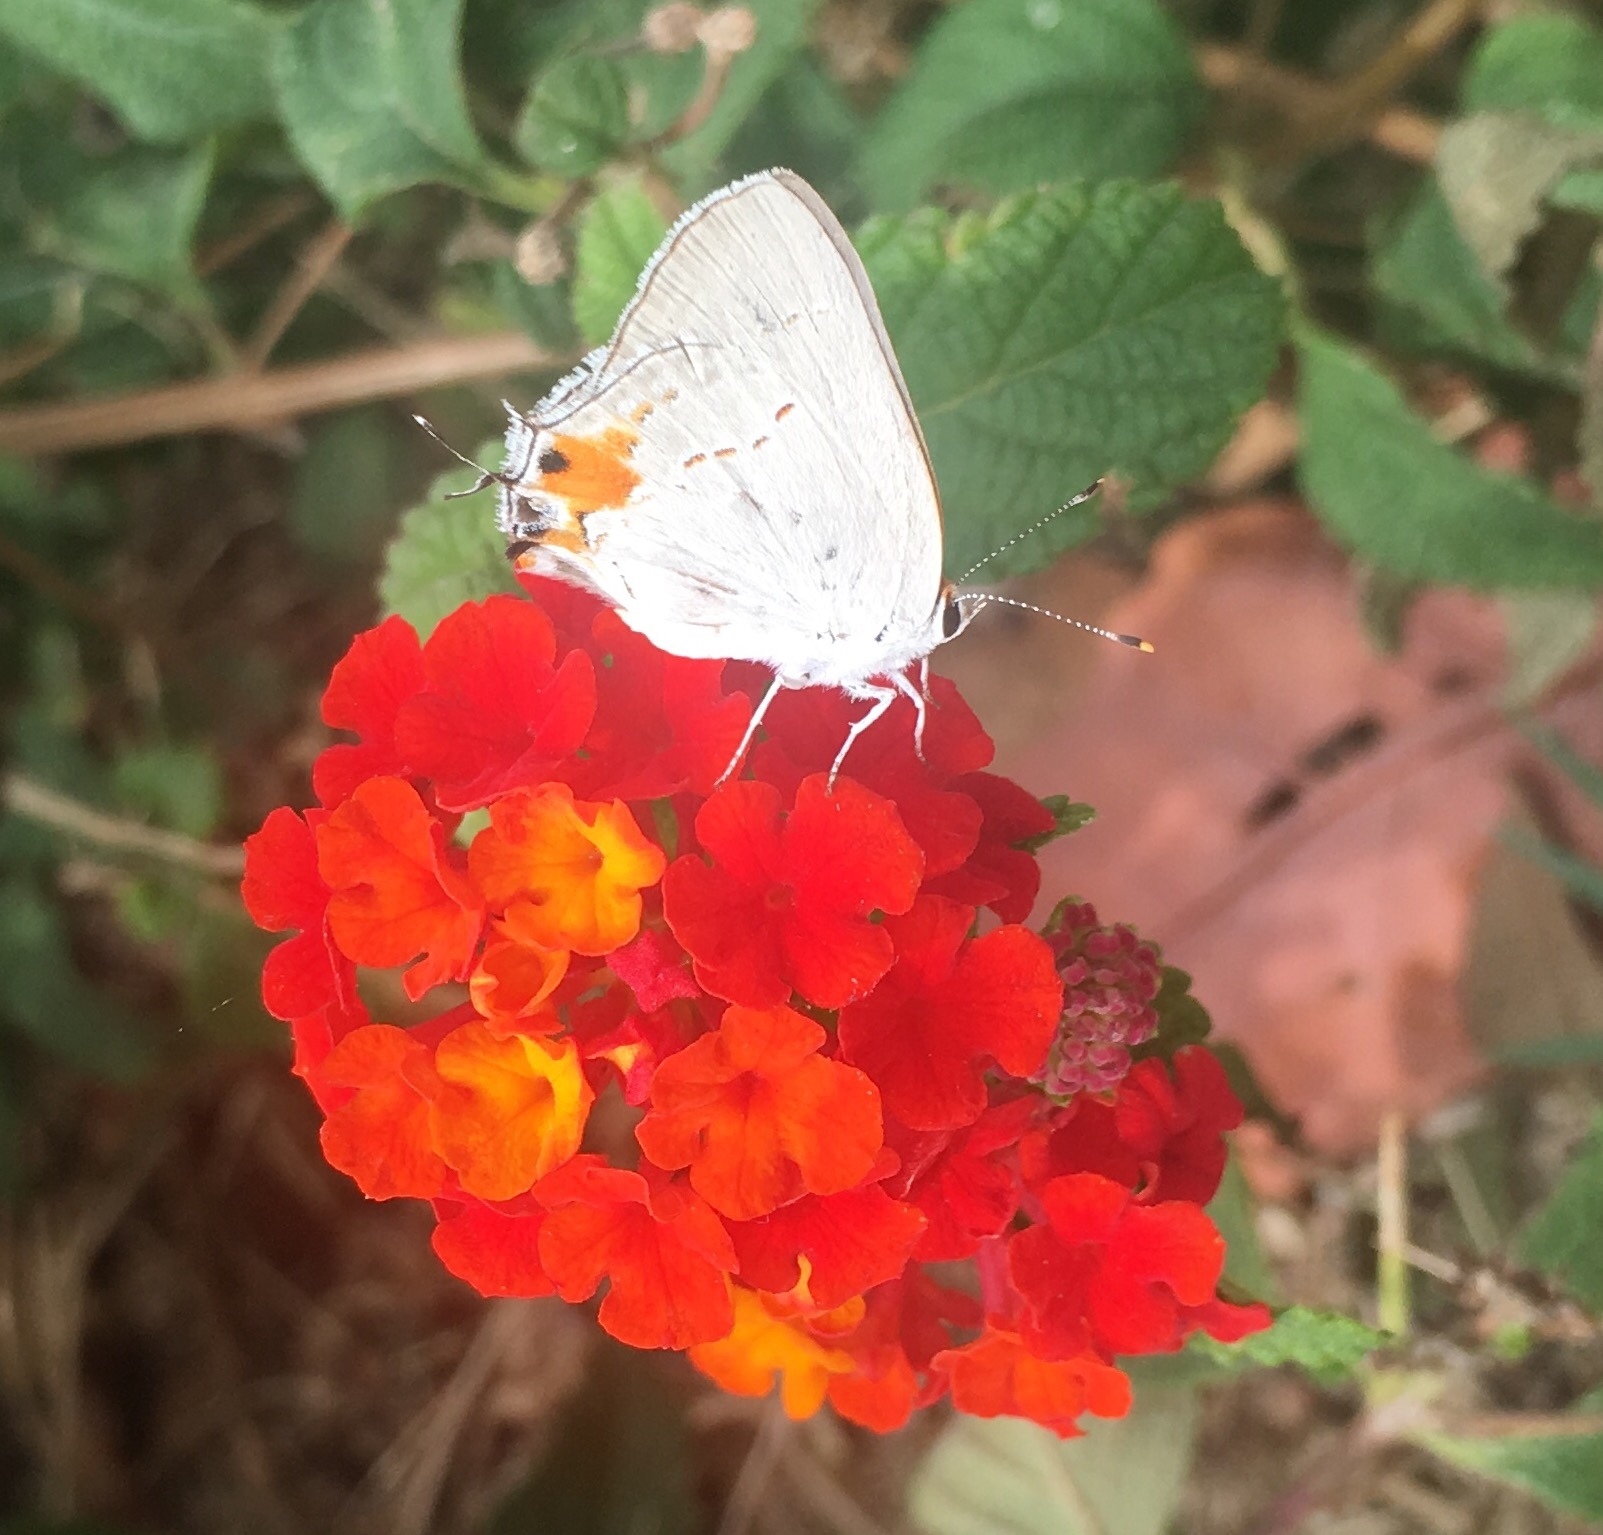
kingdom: Animalia
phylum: Arthropoda
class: Insecta
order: Lepidoptera
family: Lycaenidae
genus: Strymon
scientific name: Strymon melinus
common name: Gray hairstreak
